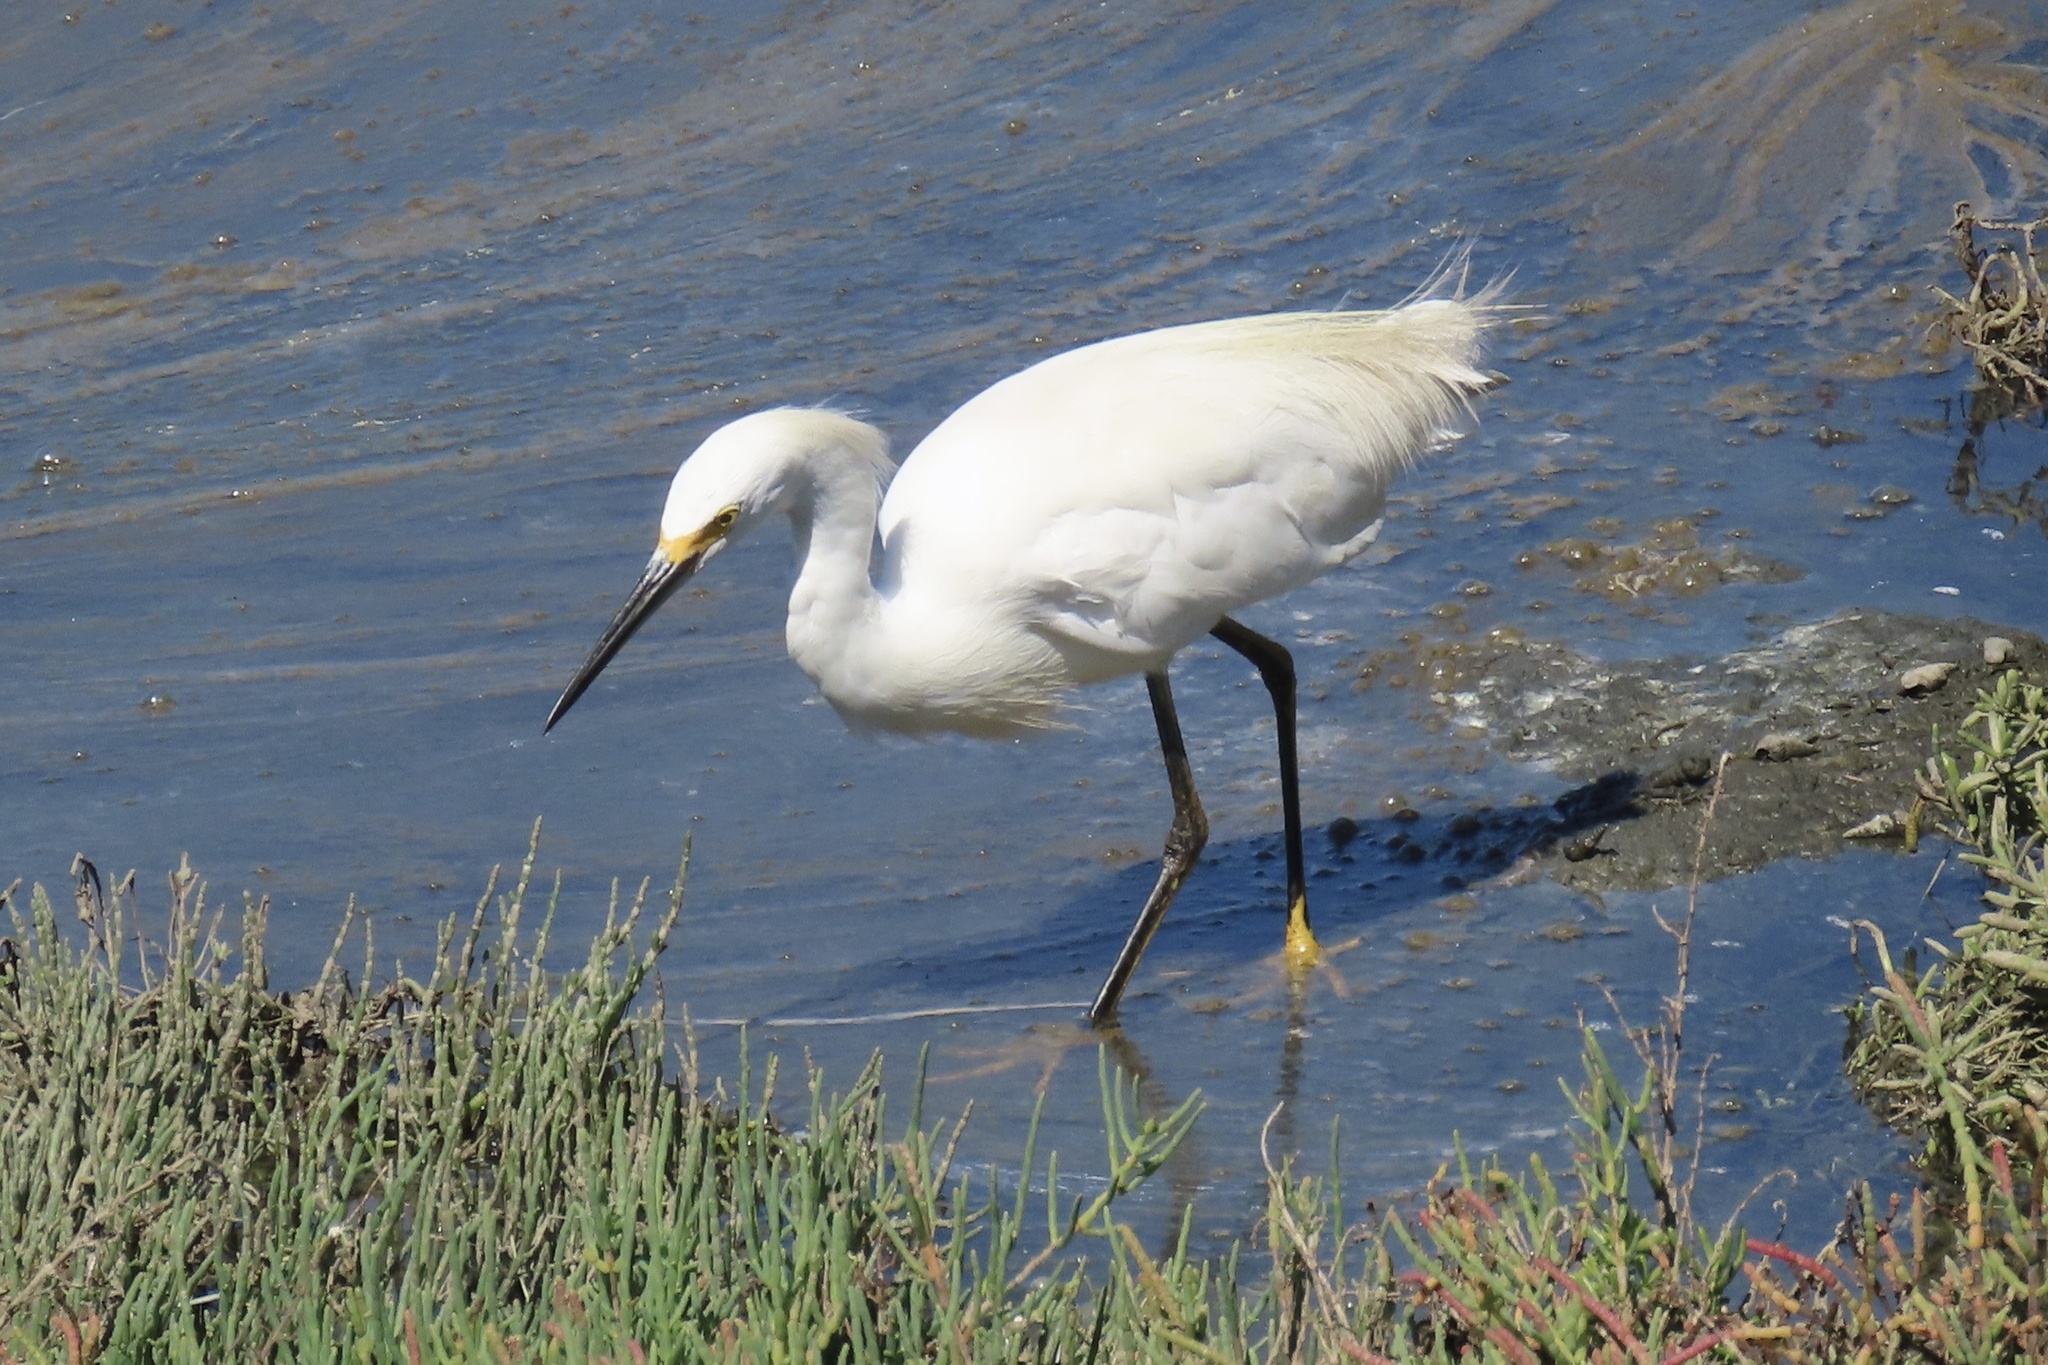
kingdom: Animalia
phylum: Chordata
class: Aves
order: Pelecaniformes
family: Ardeidae
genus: Egretta
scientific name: Egretta thula
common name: Snowy egret
